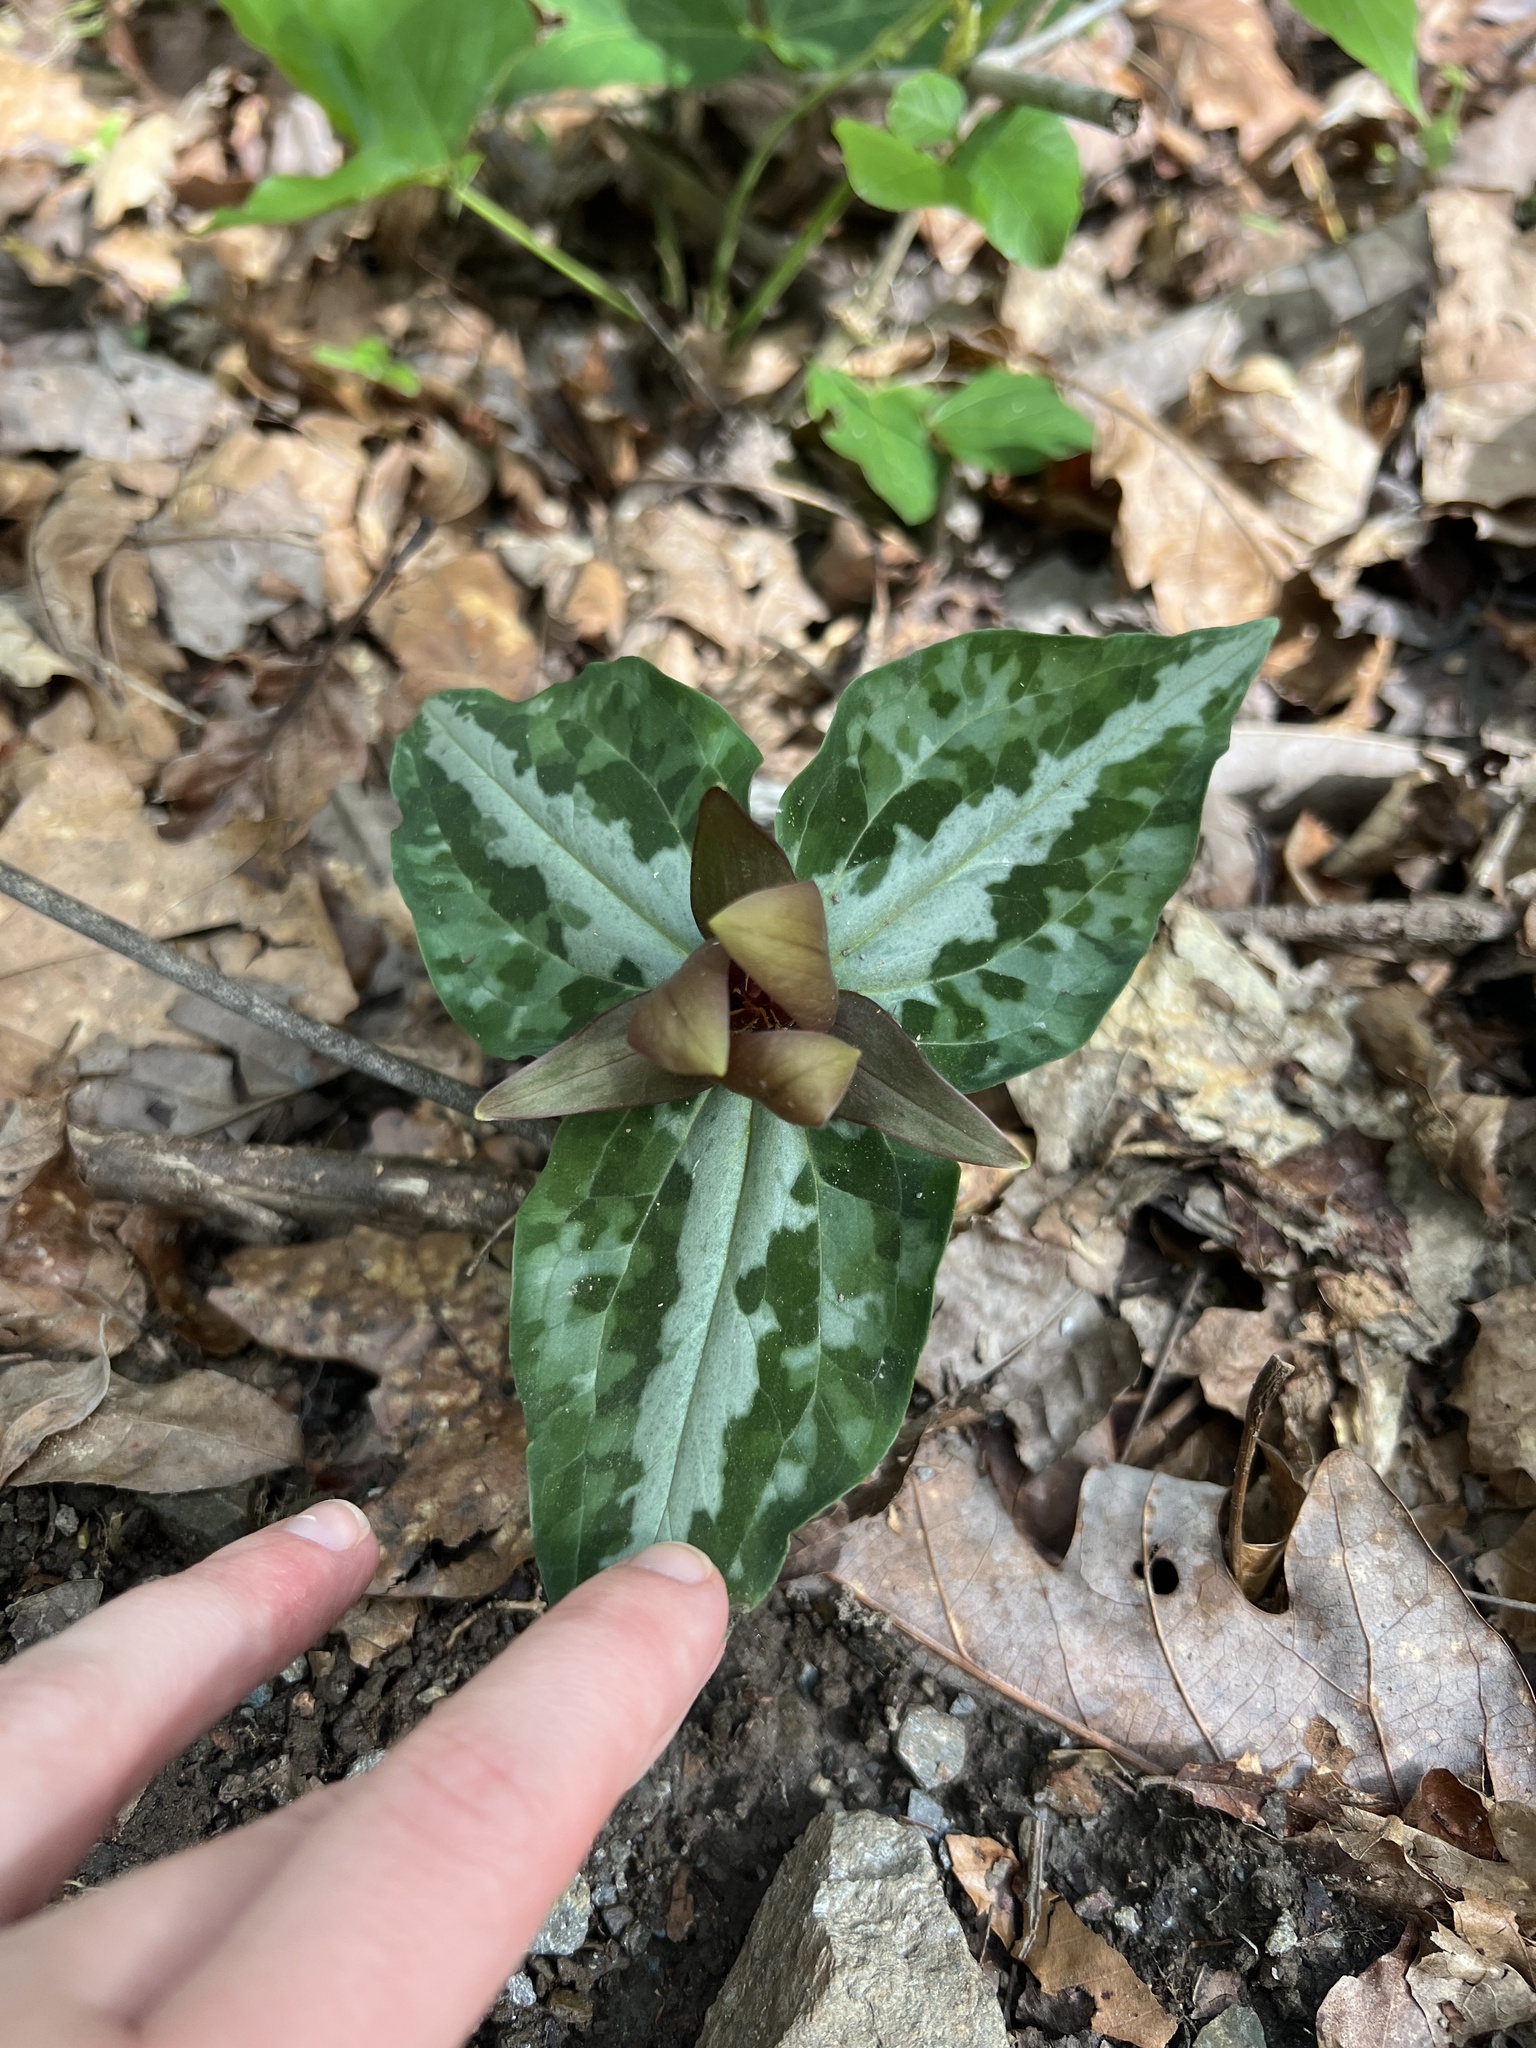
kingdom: Plantae
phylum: Tracheophyta
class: Liliopsida
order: Liliales
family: Melanthiaceae
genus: Trillium
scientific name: Trillium underwoodii
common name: Longbract wakerobin
